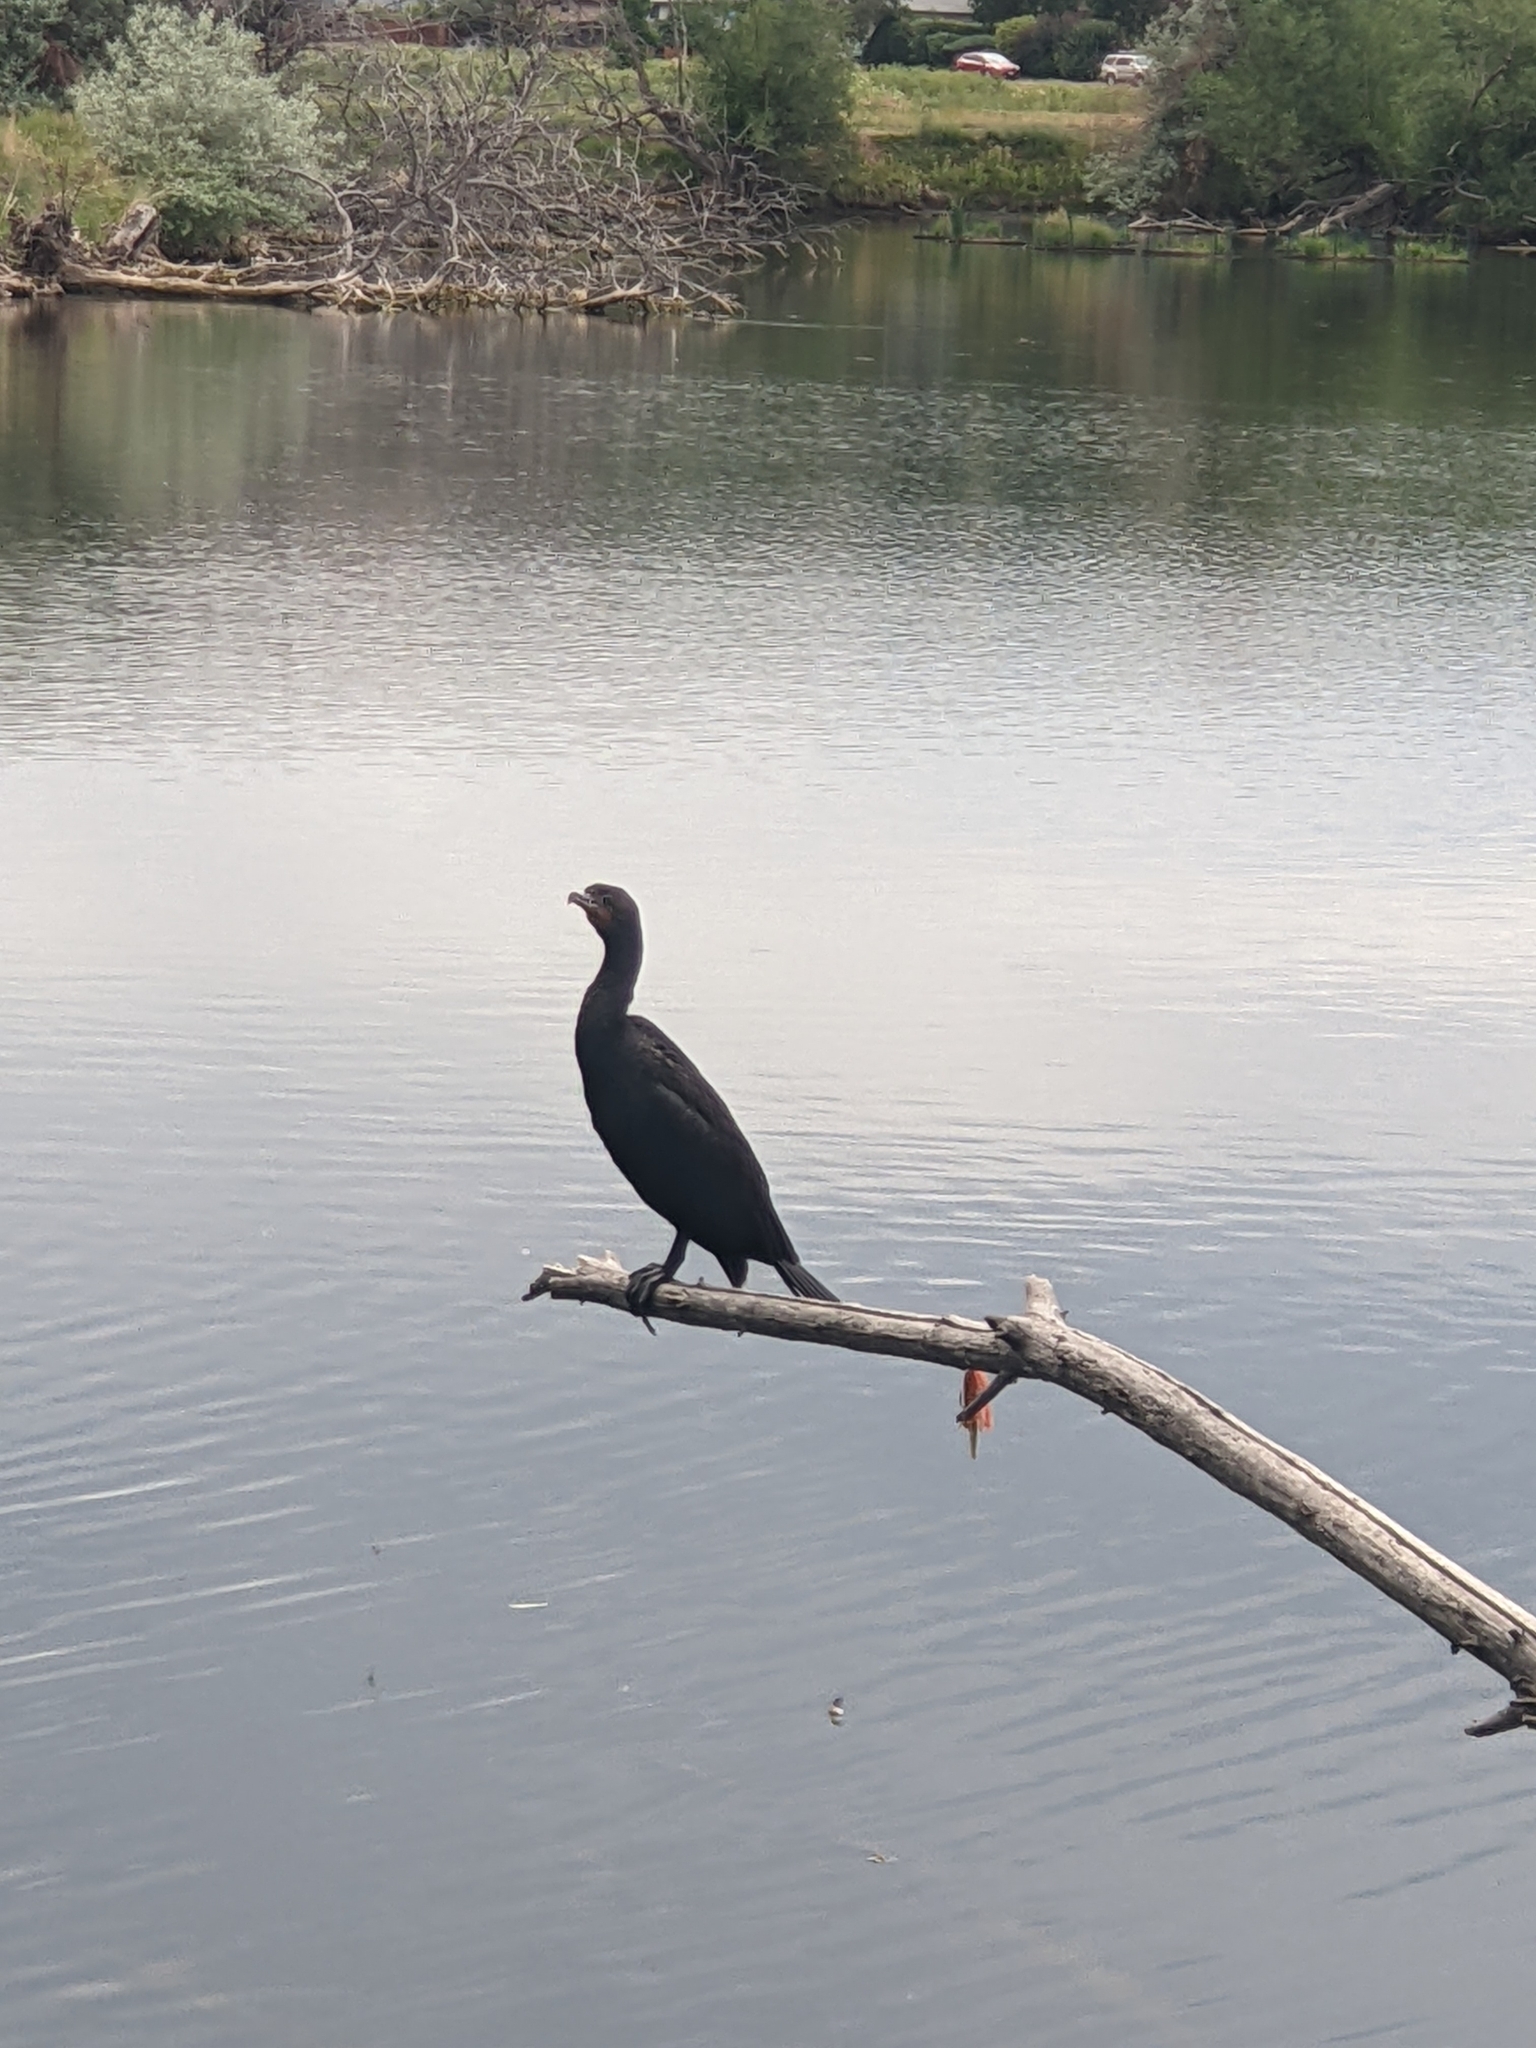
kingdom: Animalia
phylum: Chordata
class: Aves
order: Suliformes
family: Phalacrocoracidae
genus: Phalacrocorax
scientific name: Phalacrocorax auritus
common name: Double-crested cormorant
